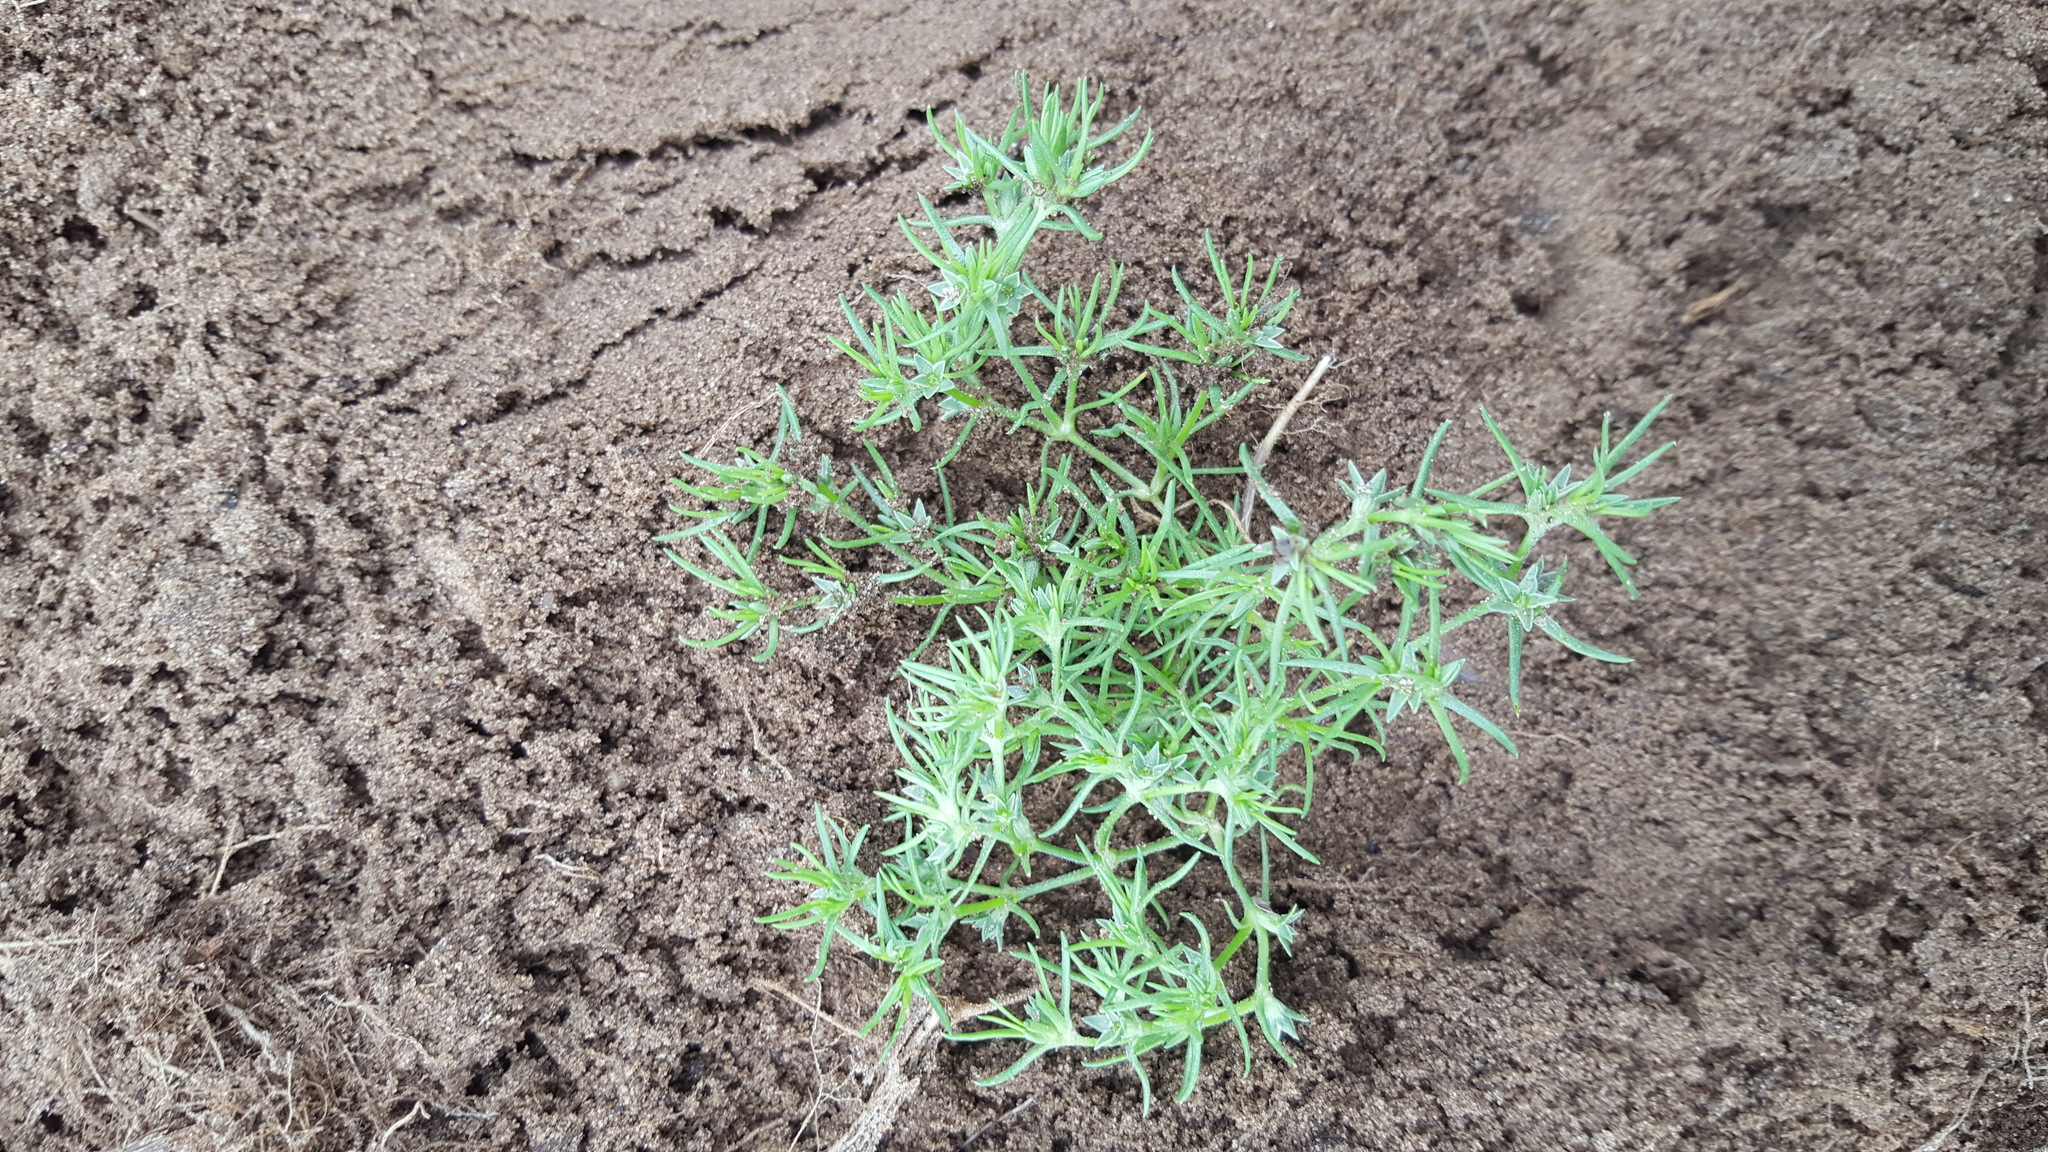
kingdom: Plantae
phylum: Tracheophyta
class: Magnoliopsida
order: Caryophyllales
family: Caryophyllaceae
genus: Scleranthus
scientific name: Scleranthus annuus
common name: Annual knawel
